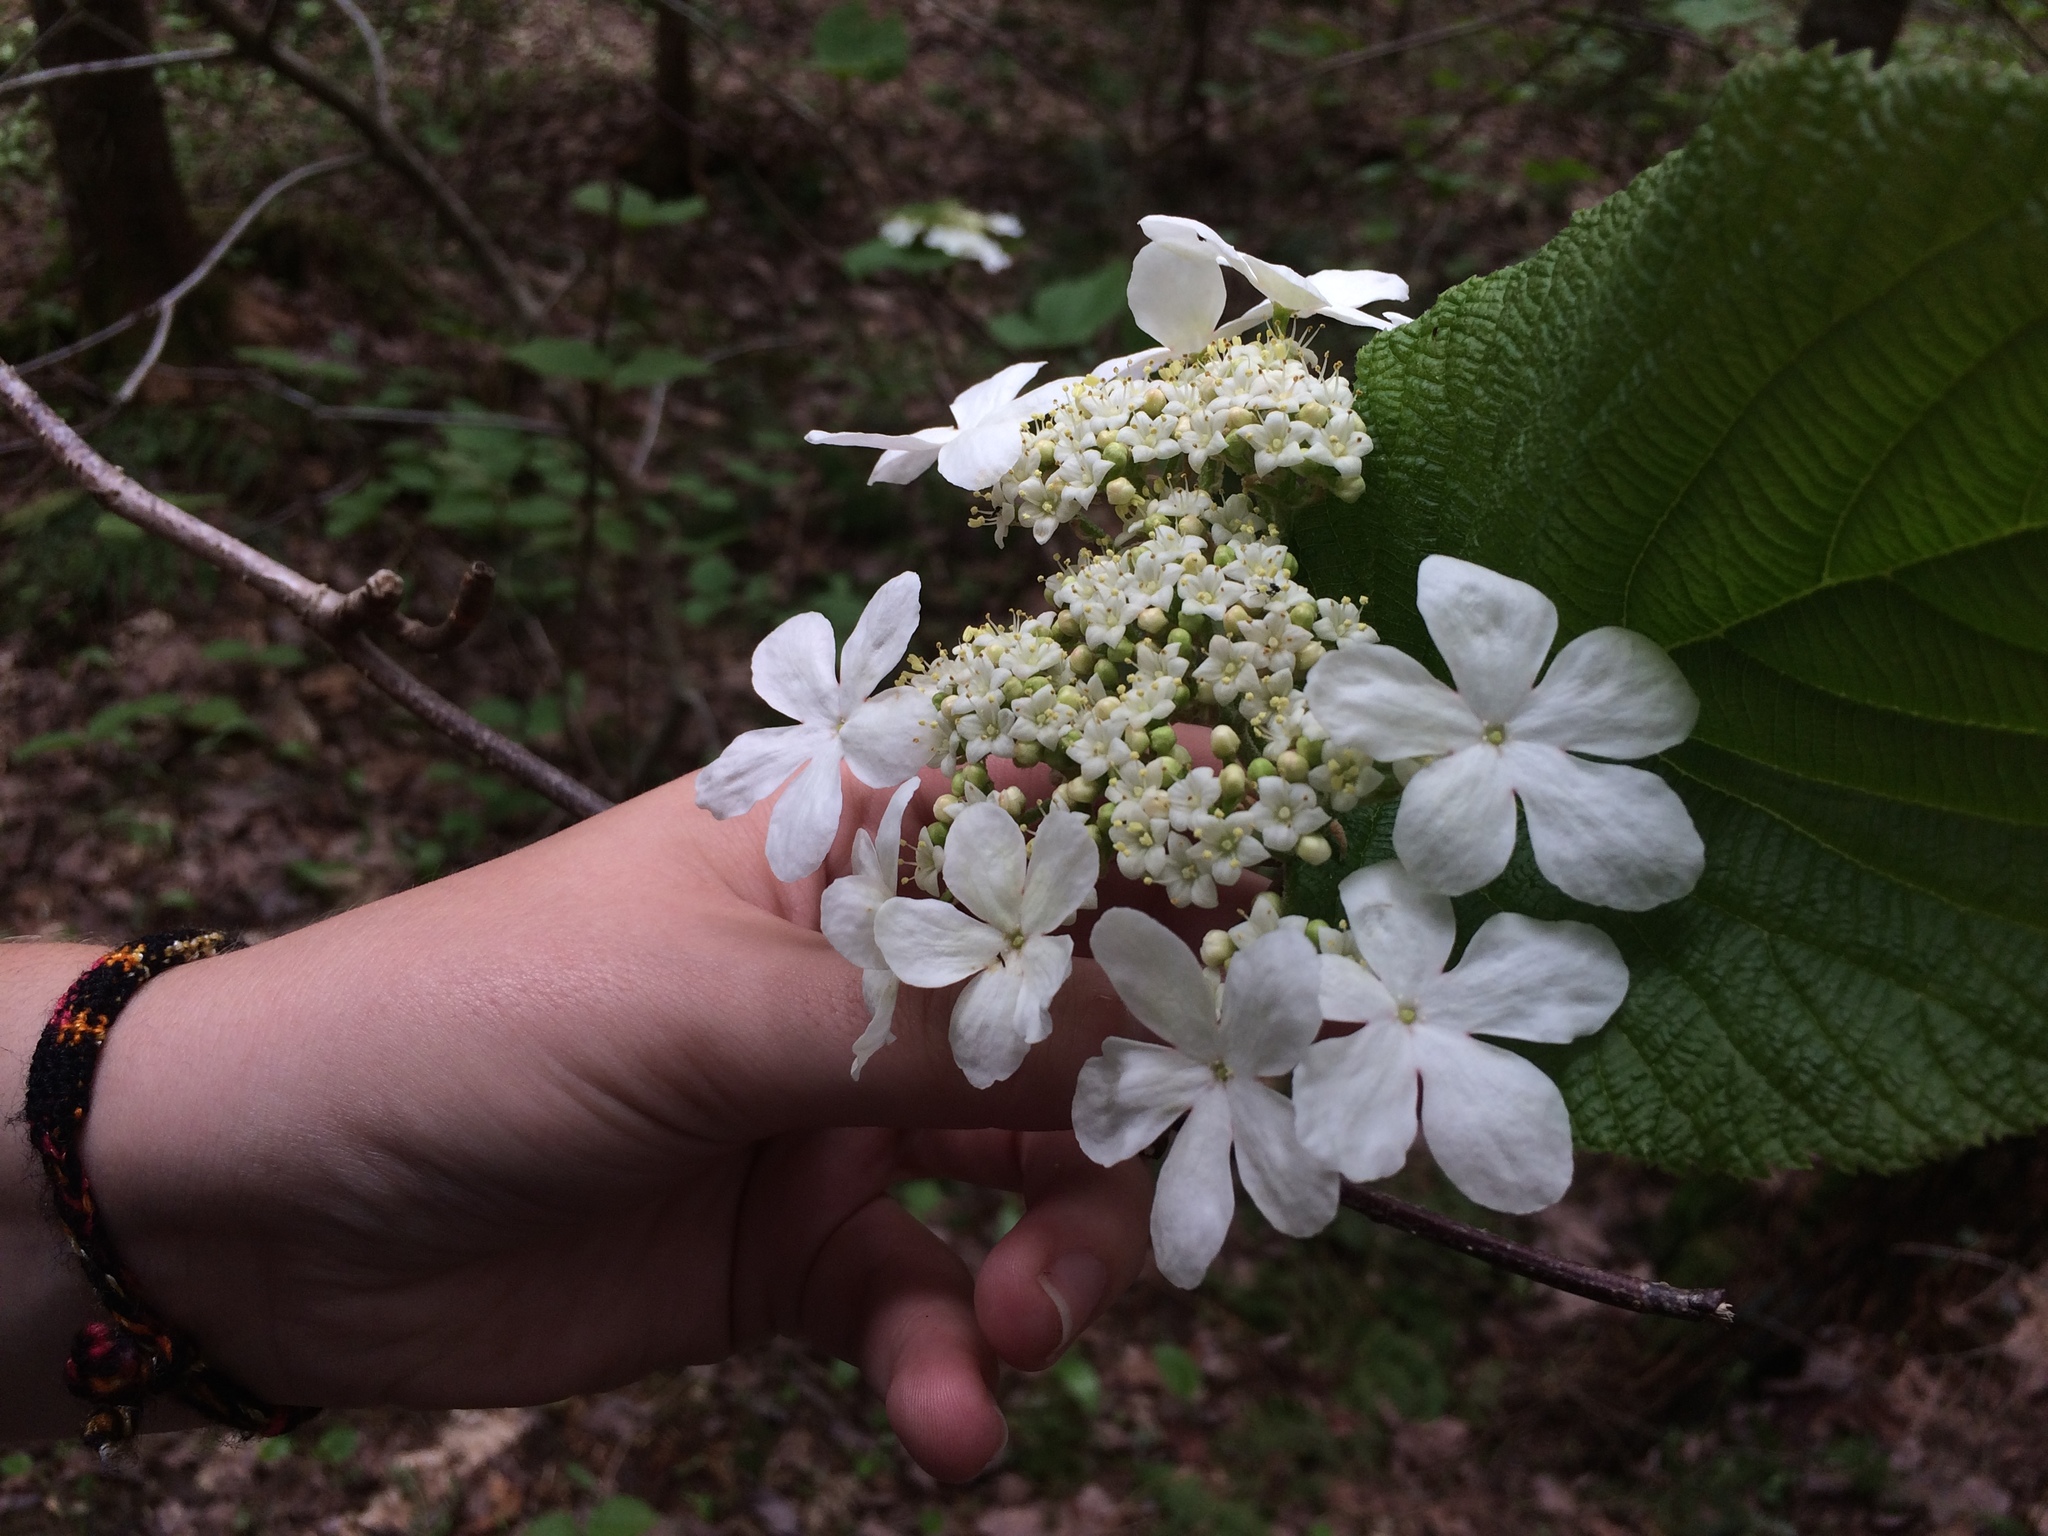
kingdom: Plantae
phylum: Tracheophyta
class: Magnoliopsida
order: Dipsacales
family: Viburnaceae
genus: Viburnum
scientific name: Viburnum lantanoides
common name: Hobblebush
